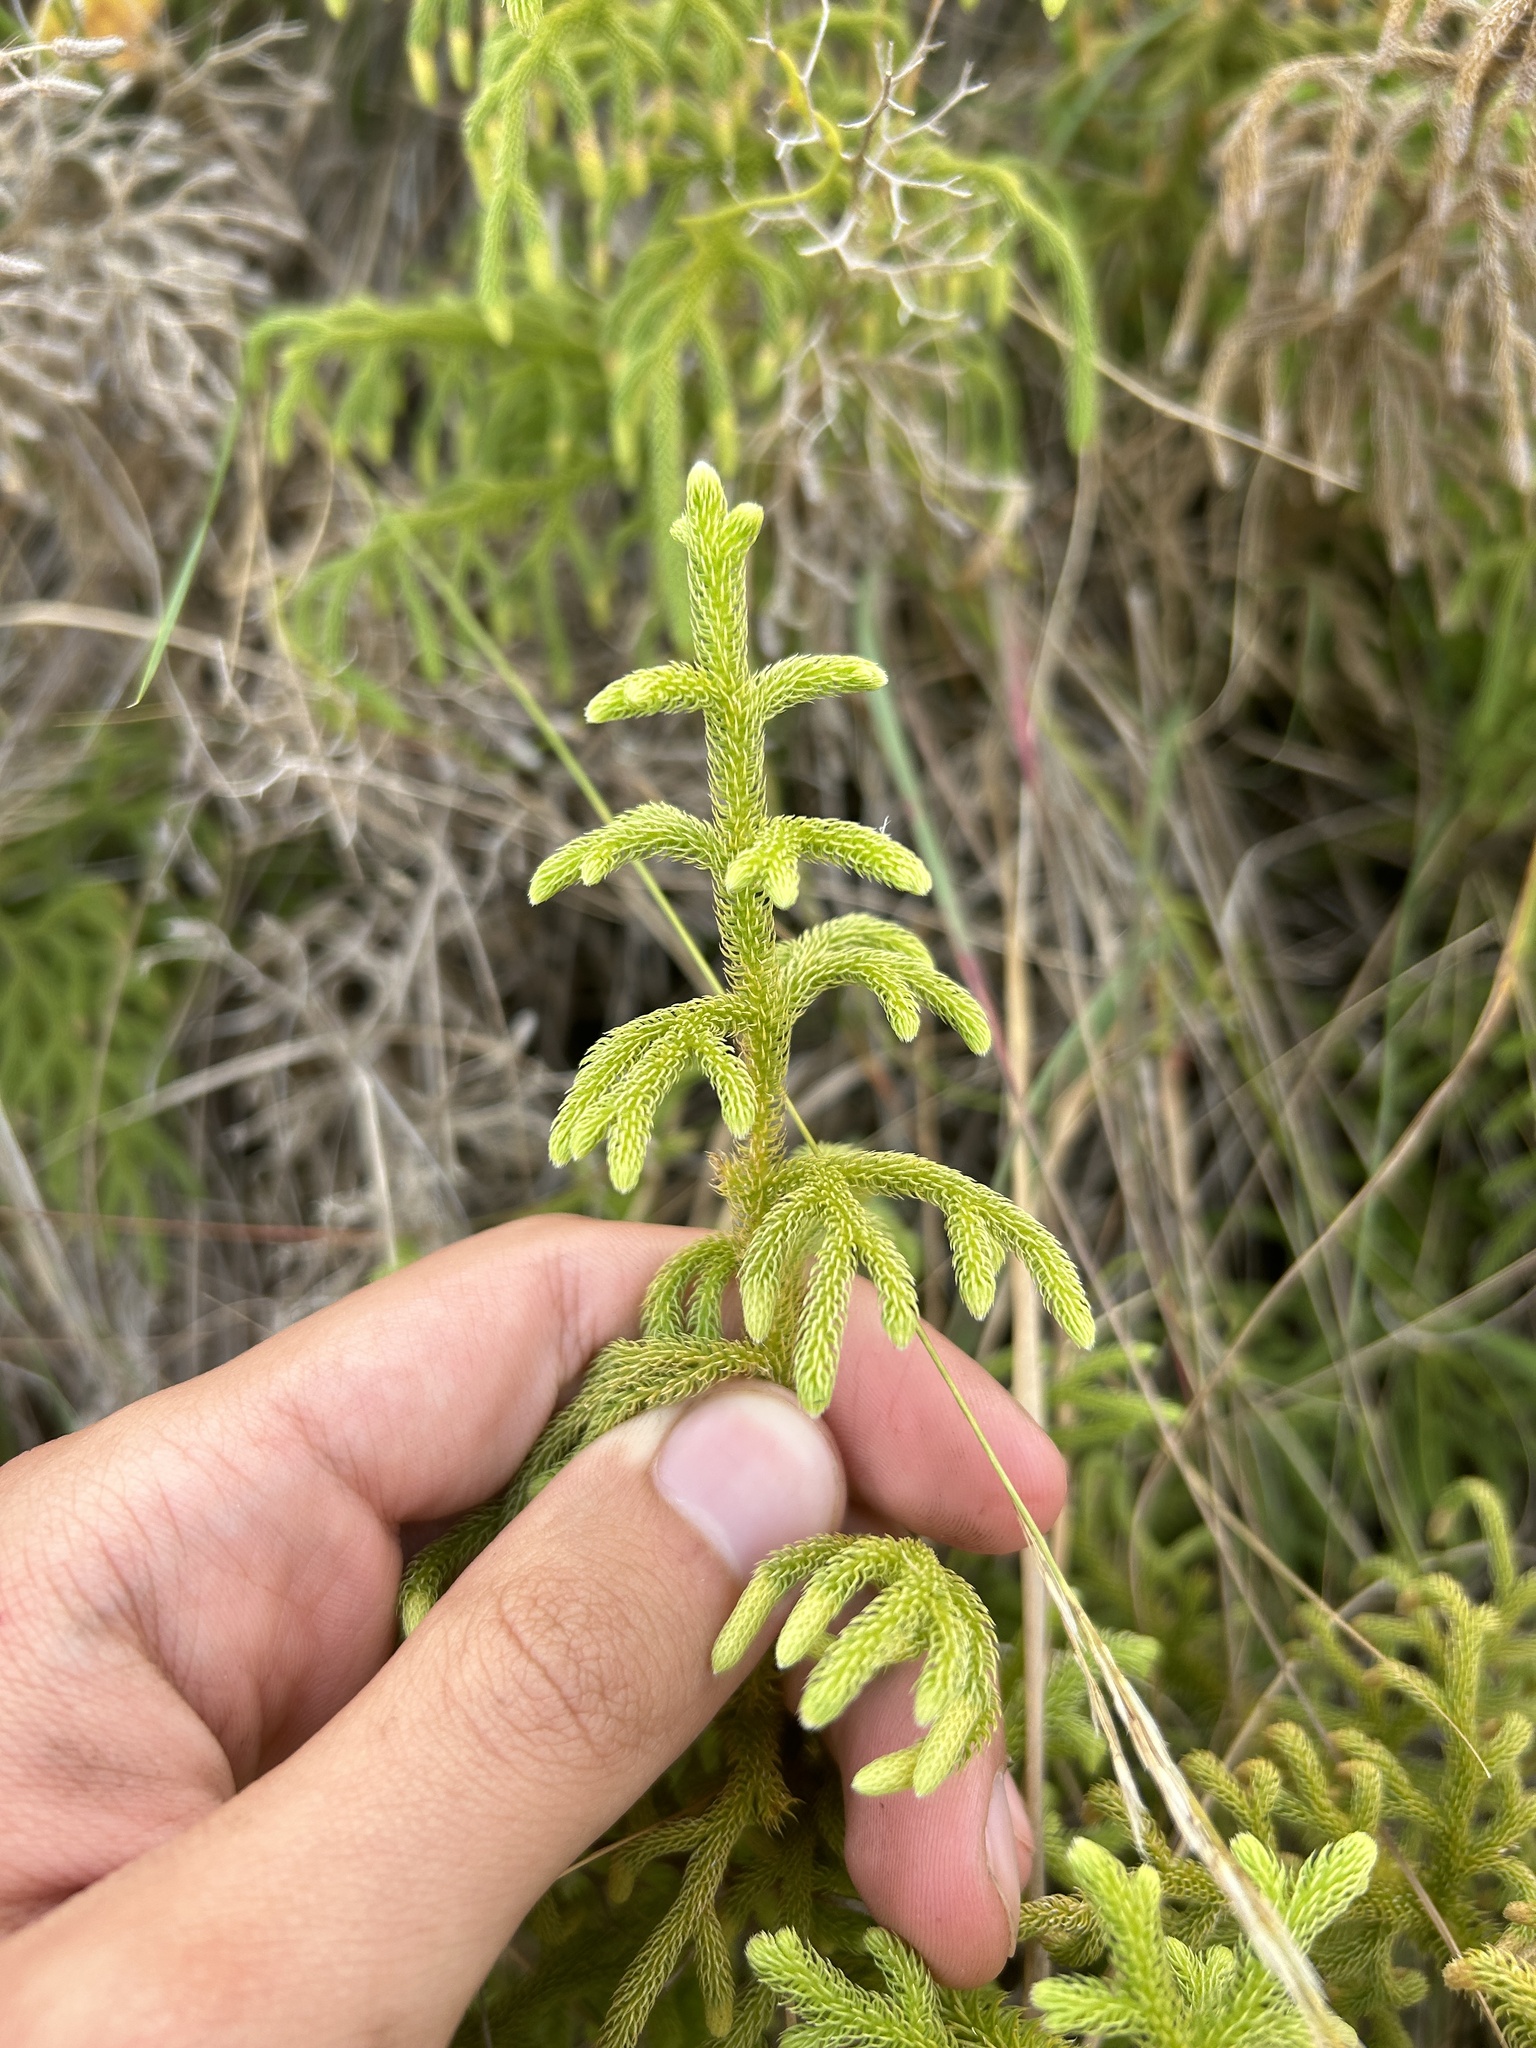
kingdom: Plantae
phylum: Tracheophyta
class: Lycopodiopsida
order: Lycopodiales
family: Lycopodiaceae
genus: Palhinhaea
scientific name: Palhinhaea cernua
